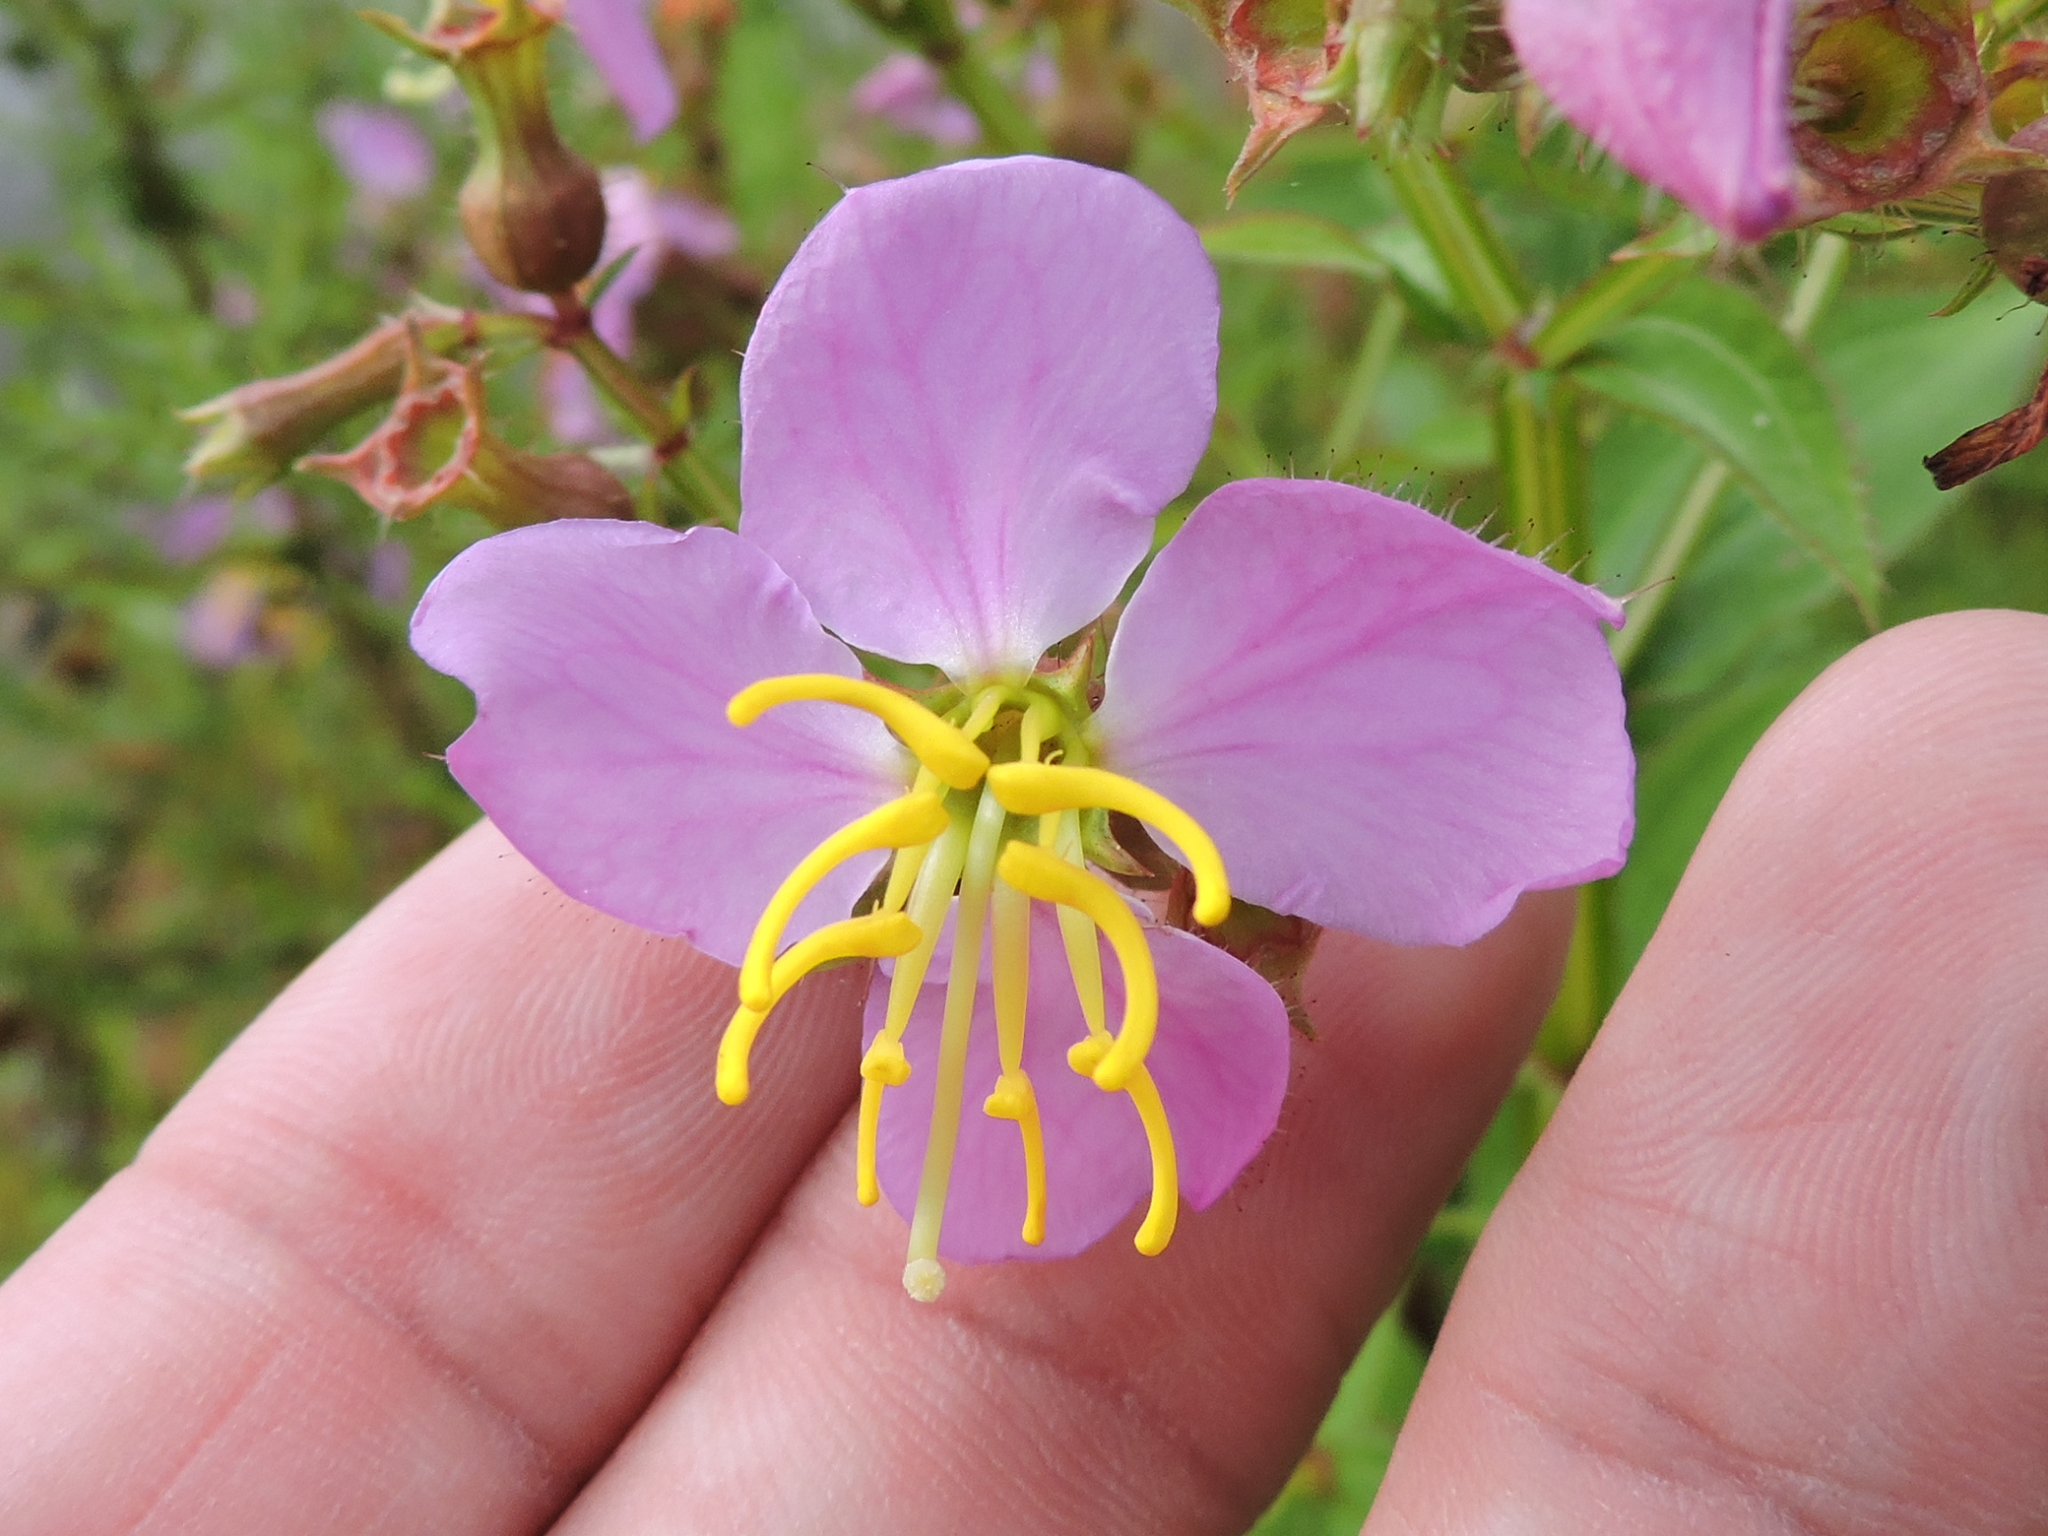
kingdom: Plantae
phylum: Tracheophyta
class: Magnoliopsida
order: Myrtales
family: Melastomataceae
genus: Rhexia
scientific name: Rhexia virginica
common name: Common meadow beauty
